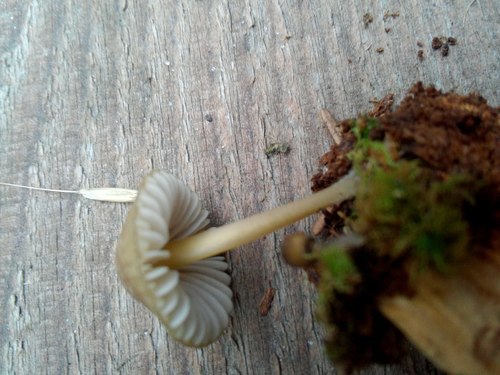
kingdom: Fungi
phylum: Basidiomycota
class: Agaricomycetes
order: Agaricales
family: Mycenaceae
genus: Mycena
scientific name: Mycena viridimarginata
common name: Olive edge bonnet
